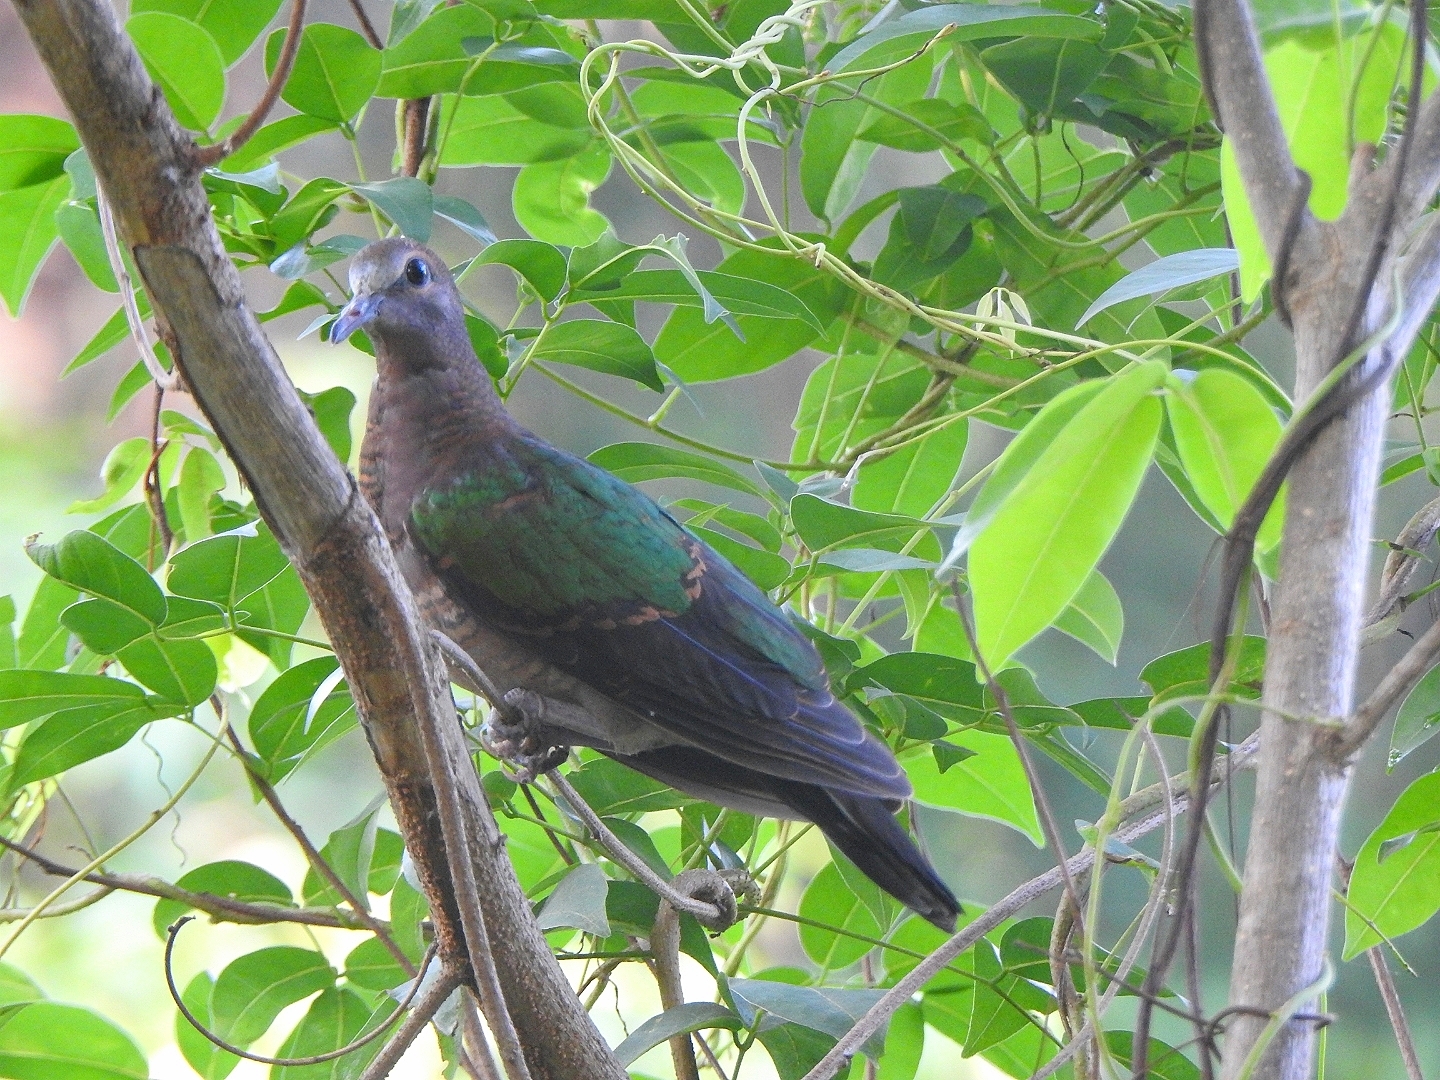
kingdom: Animalia
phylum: Chordata
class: Aves
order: Columbiformes
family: Columbidae
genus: Chalcophaps
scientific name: Chalcophaps indica
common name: Common emerald dove
